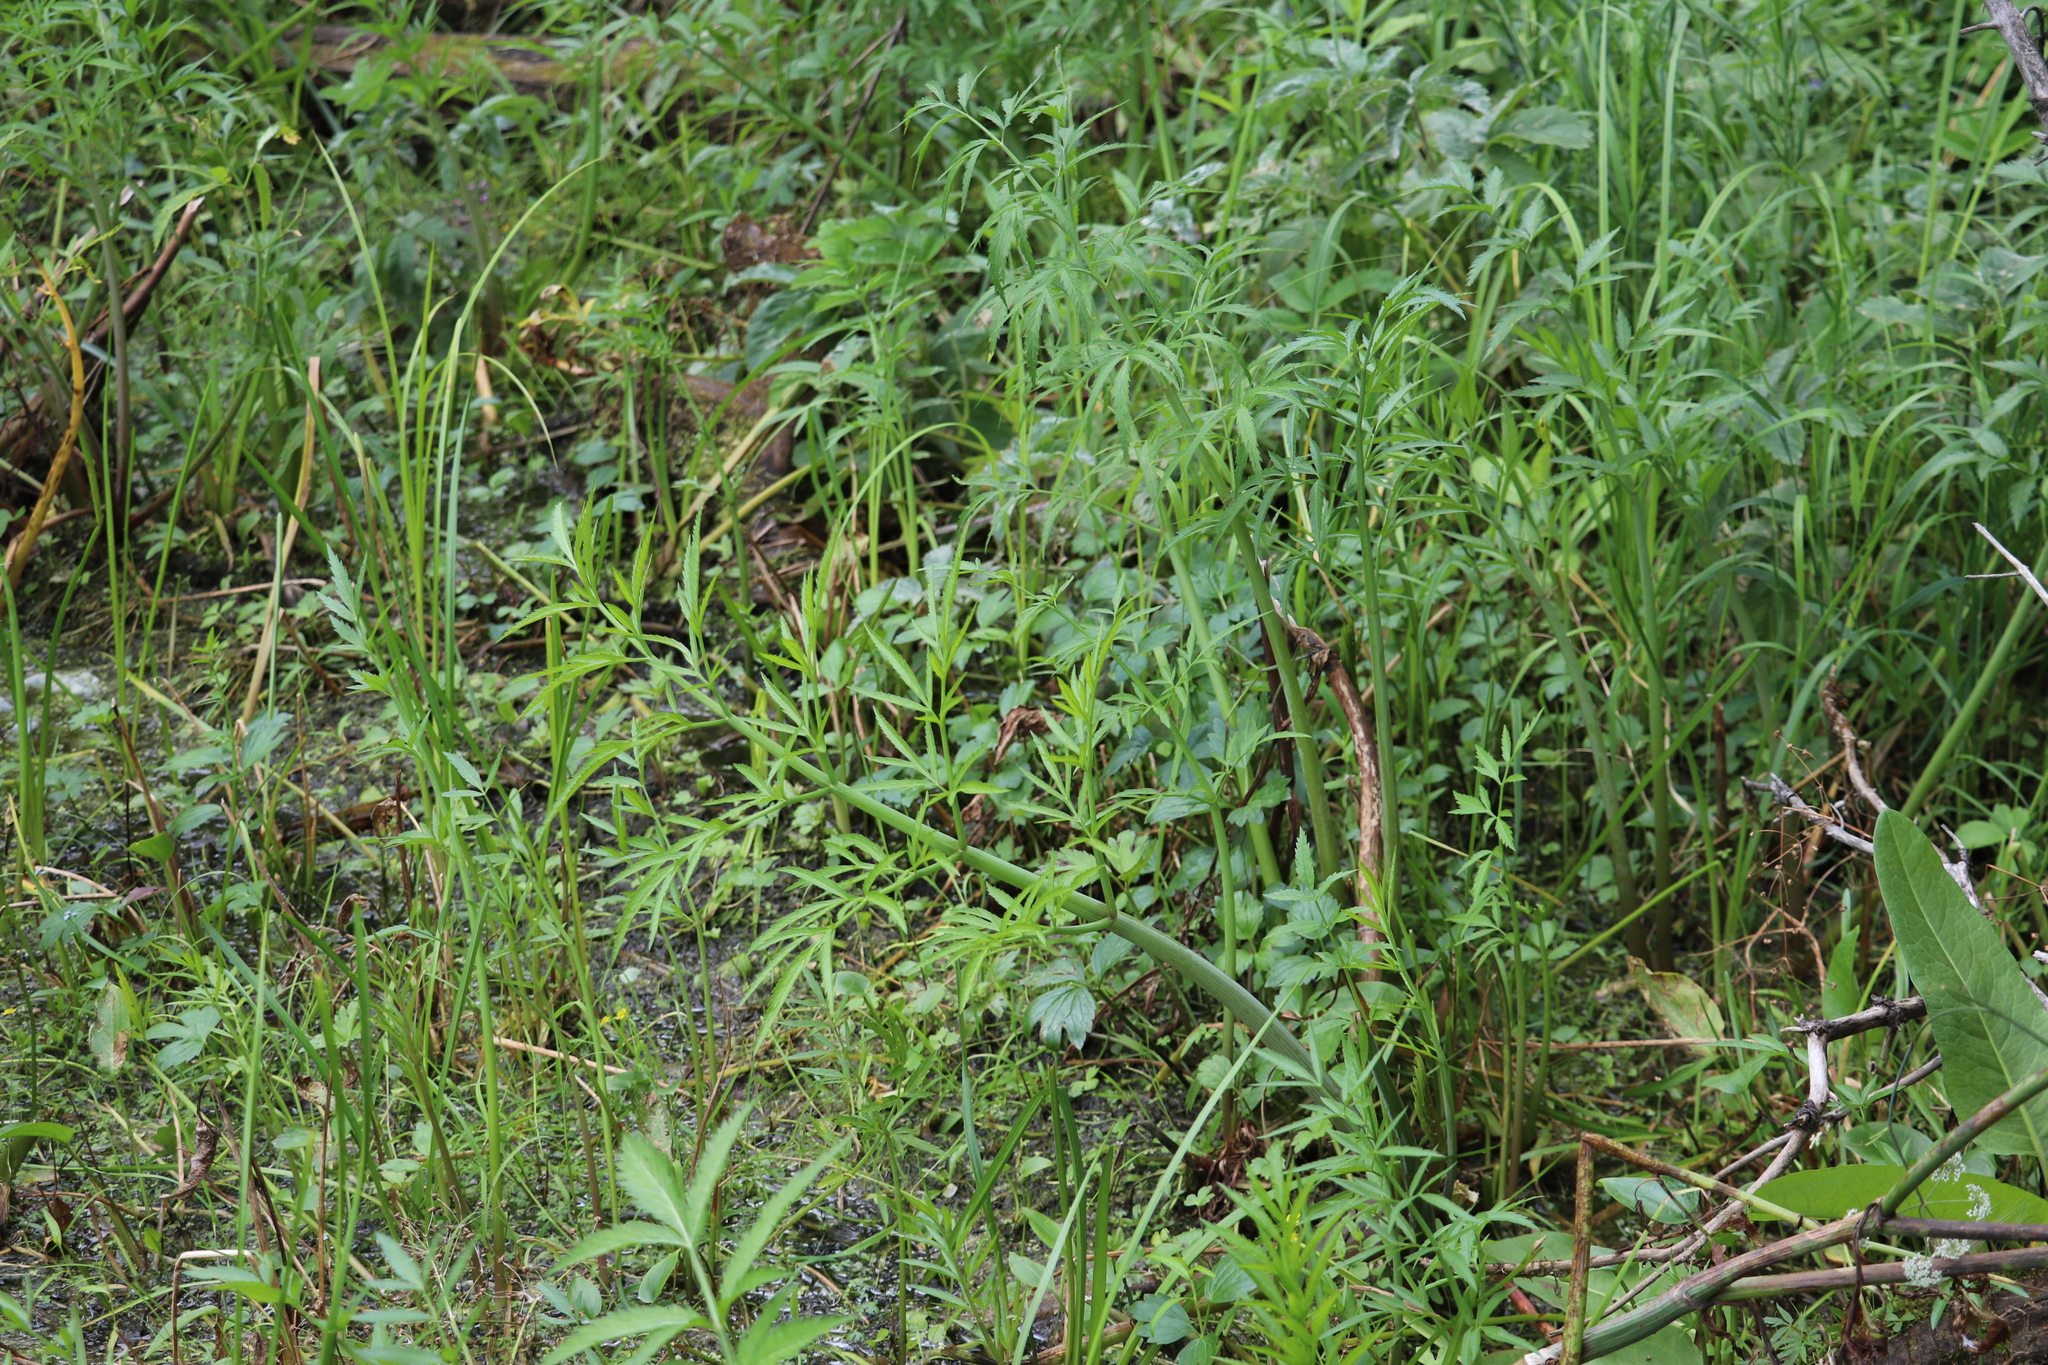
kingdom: Plantae
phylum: Tracheophyta
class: Magnoliopsida
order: Apiales
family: Apiaceae
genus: Cicuta
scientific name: Cicuta virosa
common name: Cowbane
